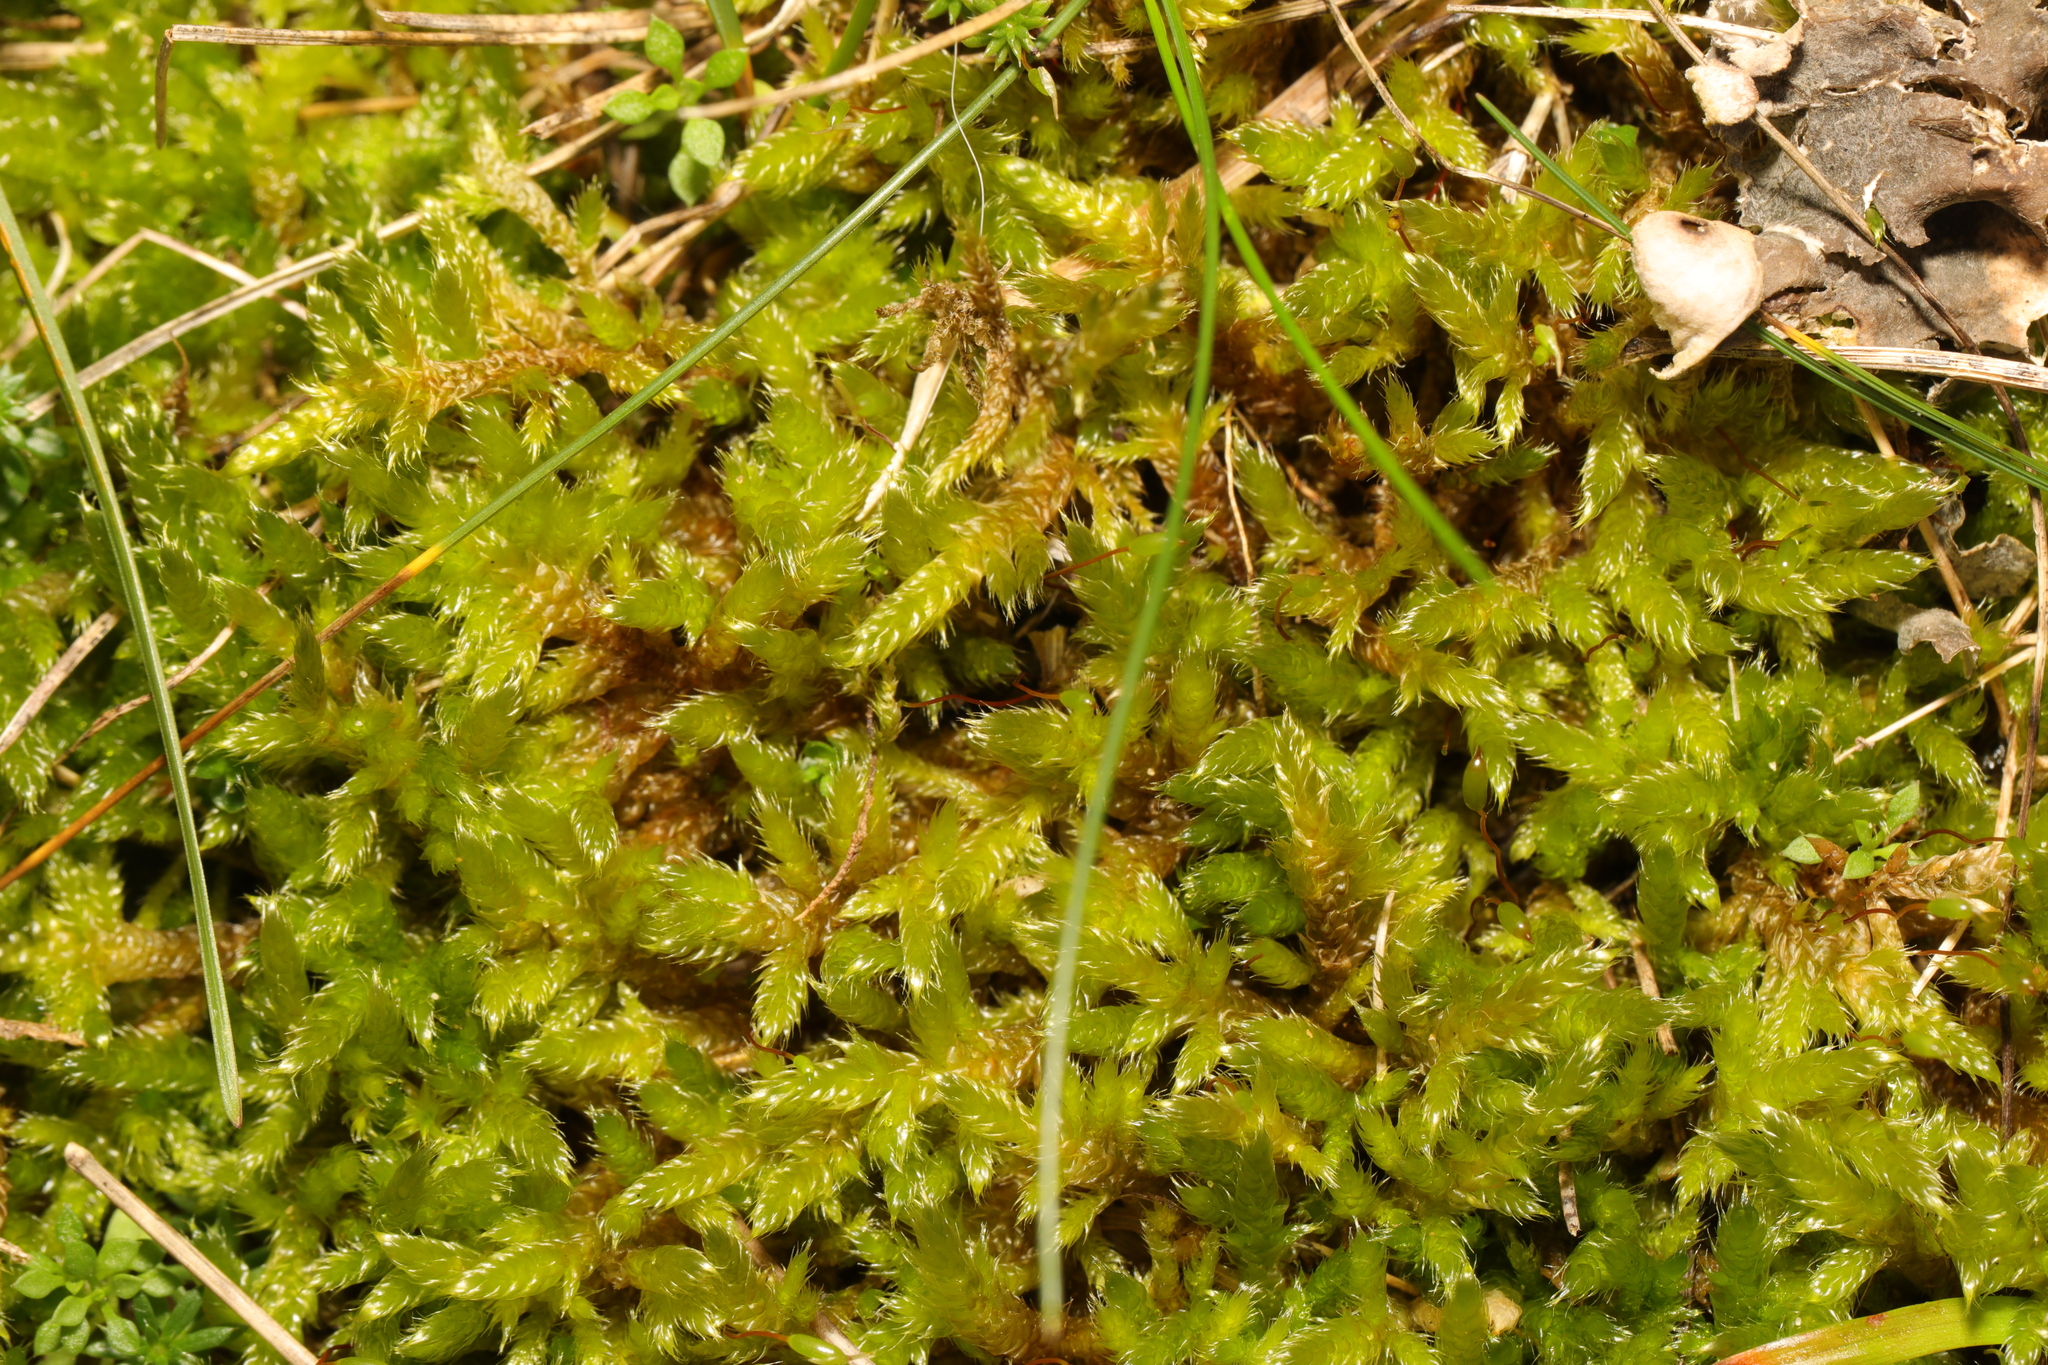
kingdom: Plantae
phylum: Bryophyta
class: Bryopsida
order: Hypnales
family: Hypnaceae
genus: Hypnum
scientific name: Hypnum cupressiforme
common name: Cypress-leaved plait-moss
